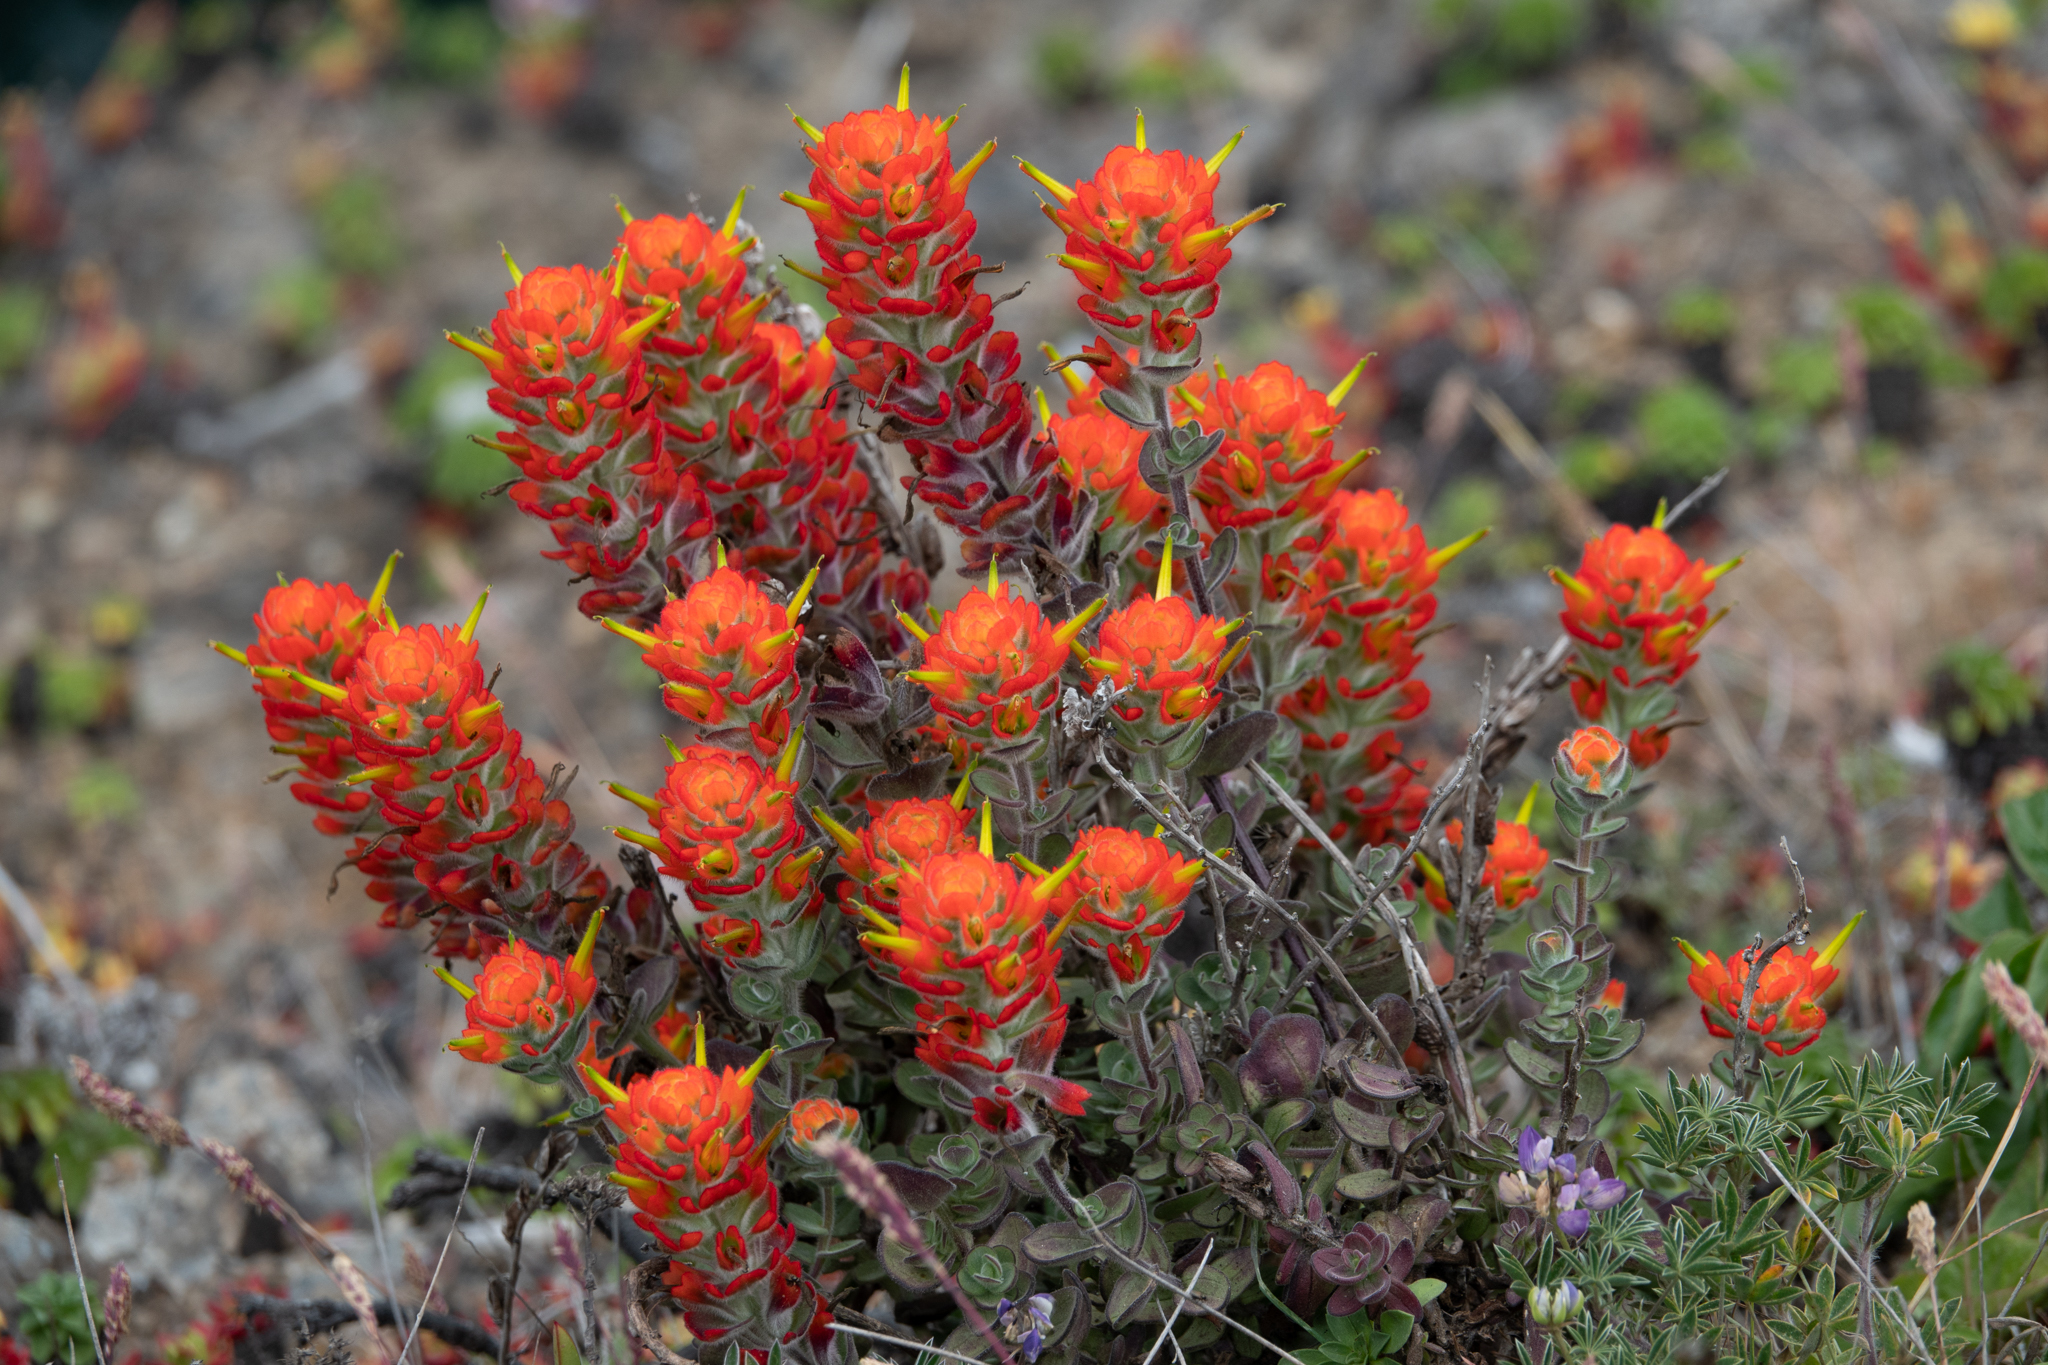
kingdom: Plantae
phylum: Tracheophyta
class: Magnoliopsida
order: Lamiales
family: Orobanchaceae
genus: Castilleja
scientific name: Castilleja mendocinensis
